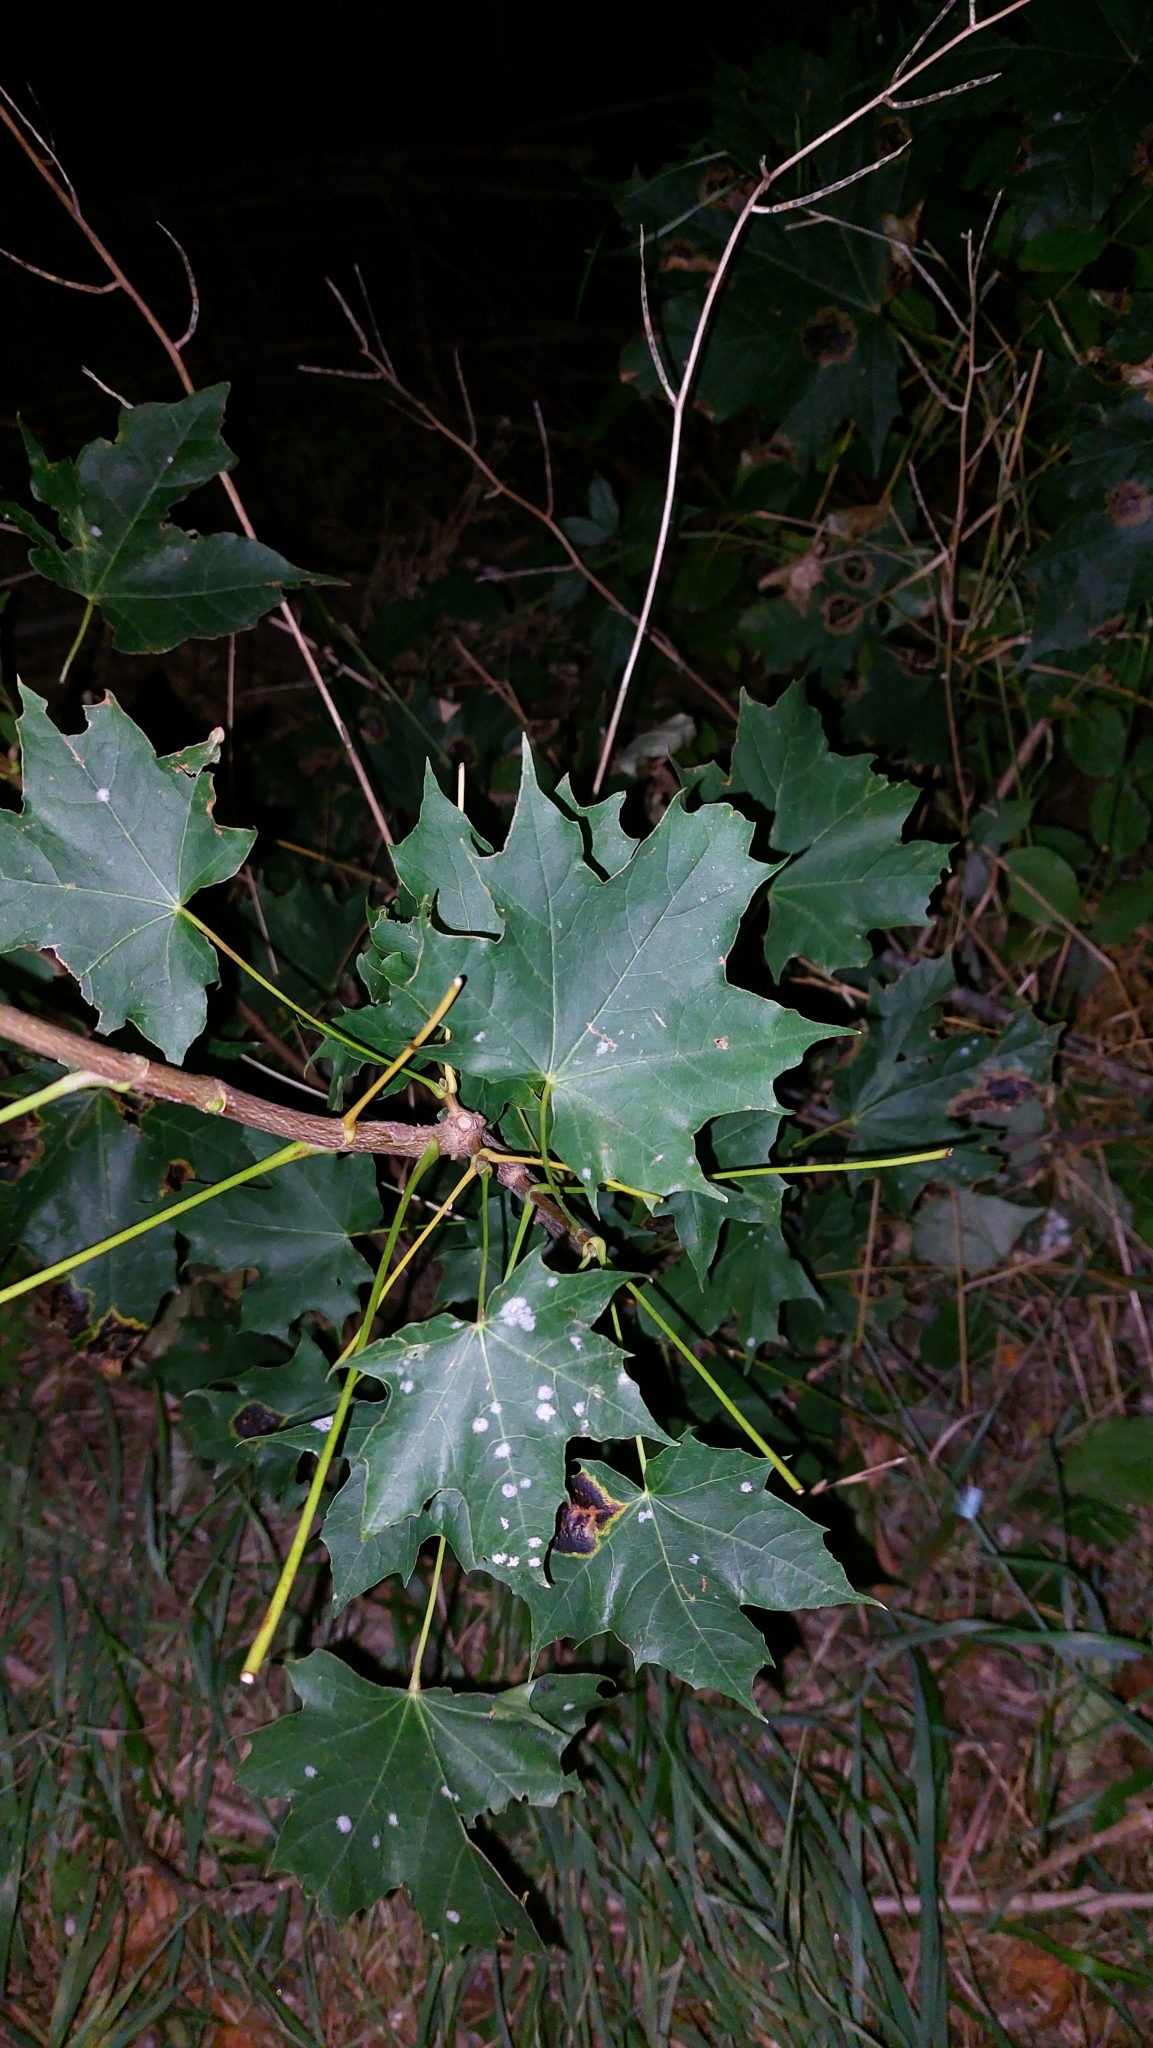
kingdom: Plantae
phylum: Tracheophyta
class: Magnoliopsida
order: Sapindales
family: Sapindaceae
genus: Acer
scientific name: Acer platanoides
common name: Norway maple
